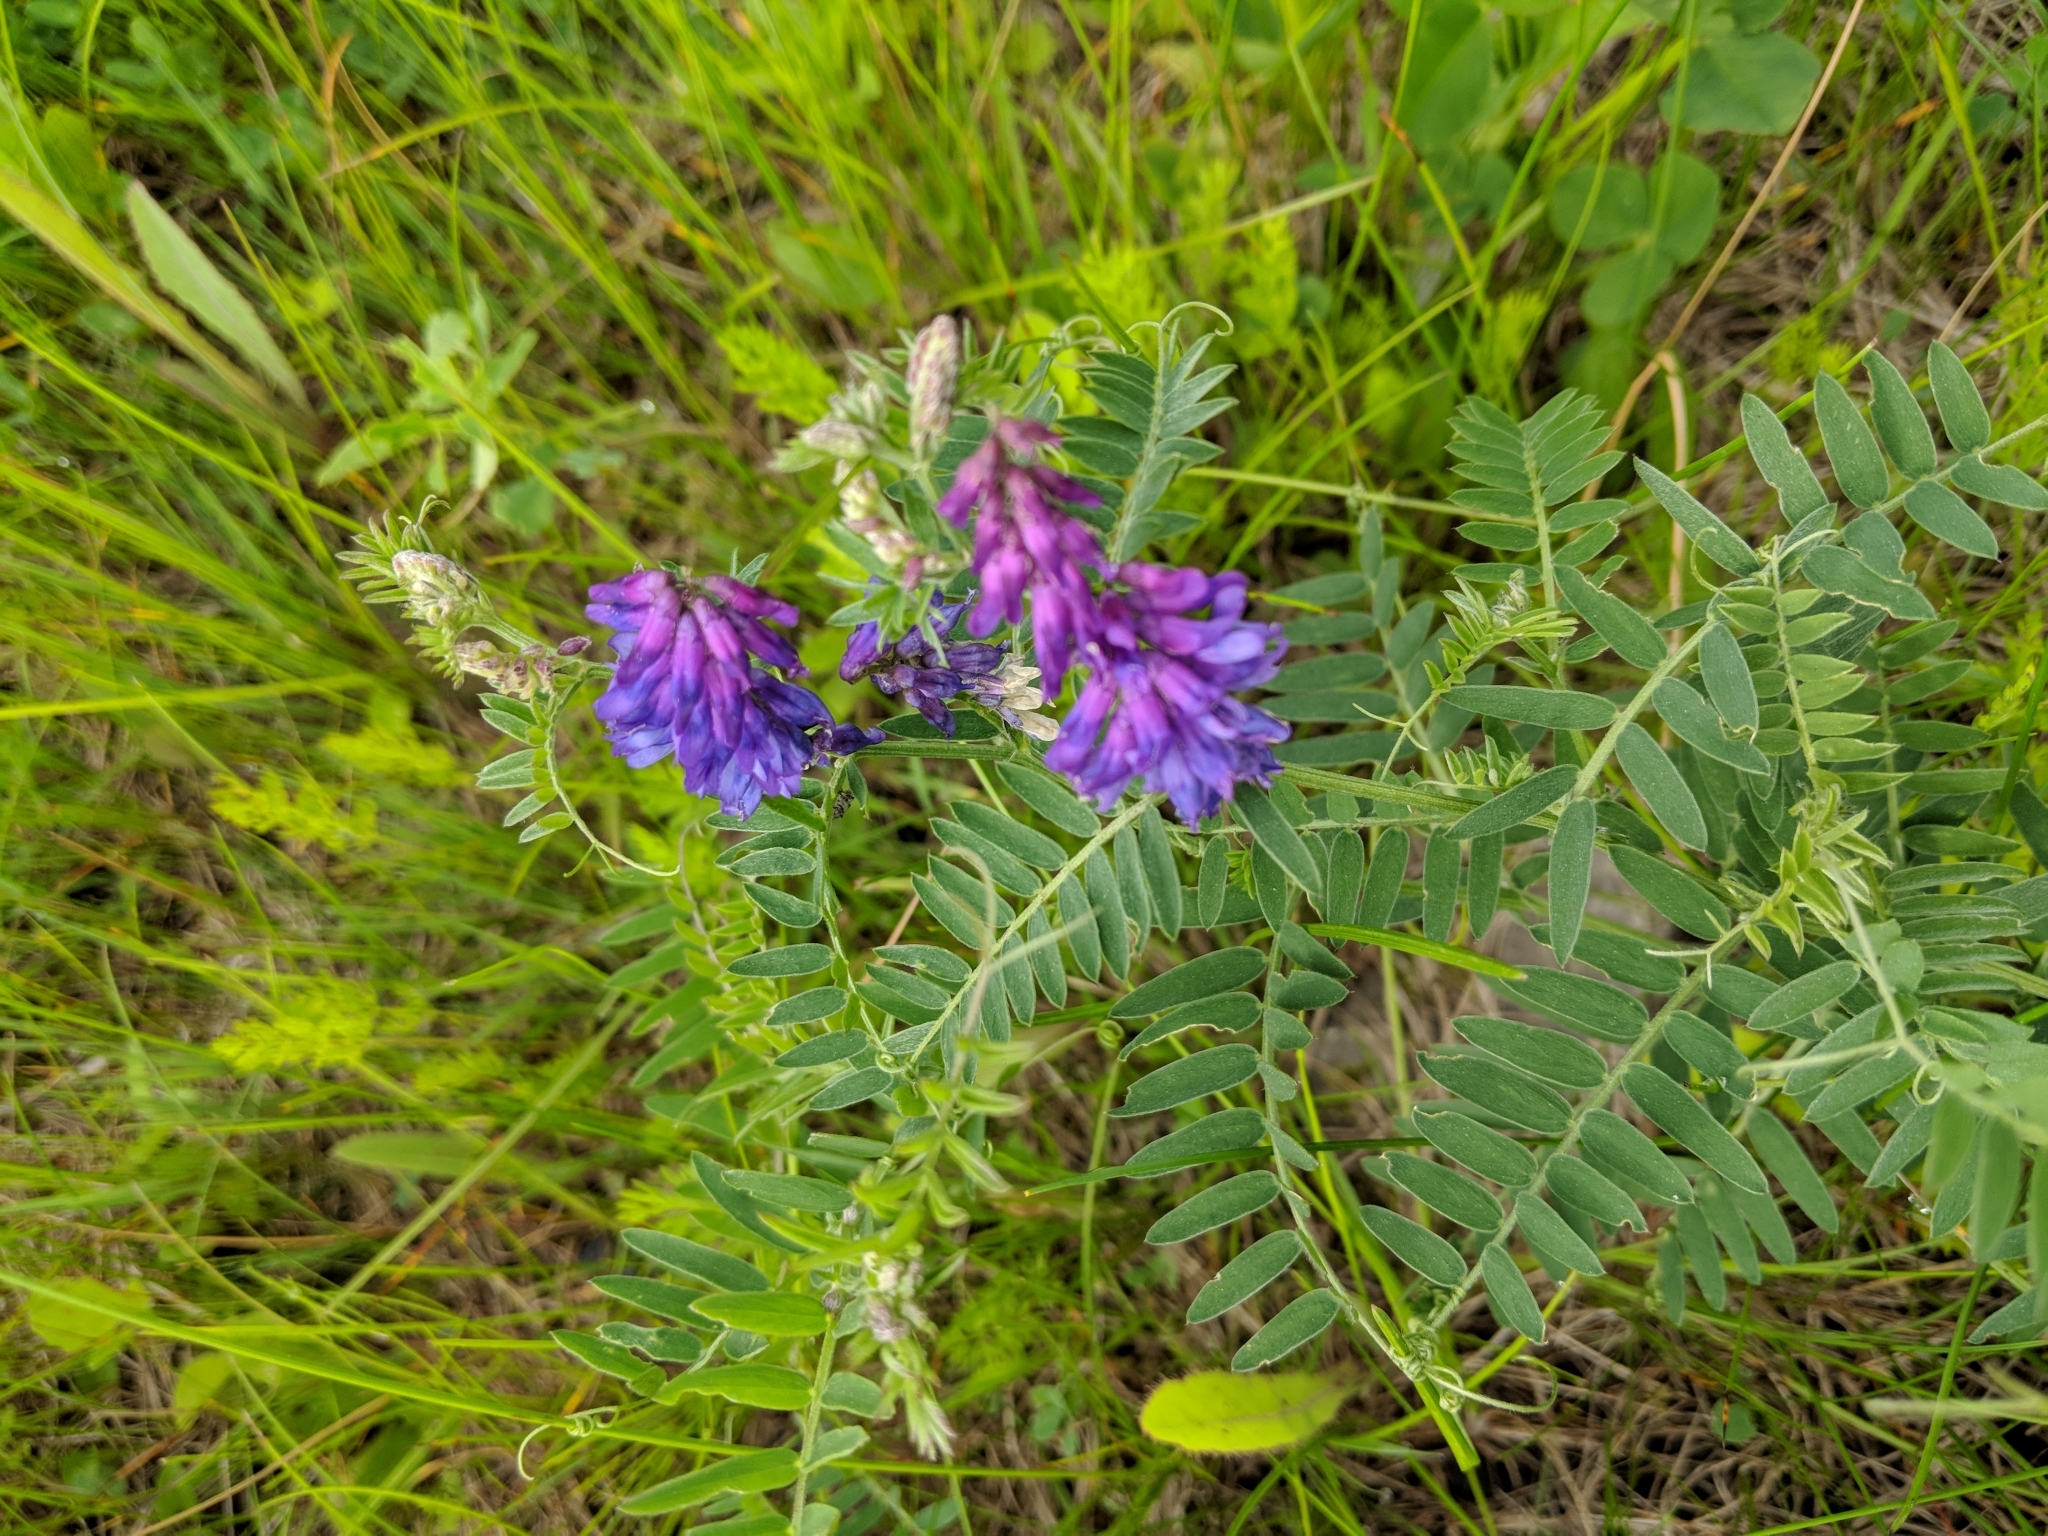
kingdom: Plantae
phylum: Tracheophyta
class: Magnoliopsida
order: Fabales
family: Fabaceae
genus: Vicia
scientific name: Vicia cracca
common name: Bird vetch
